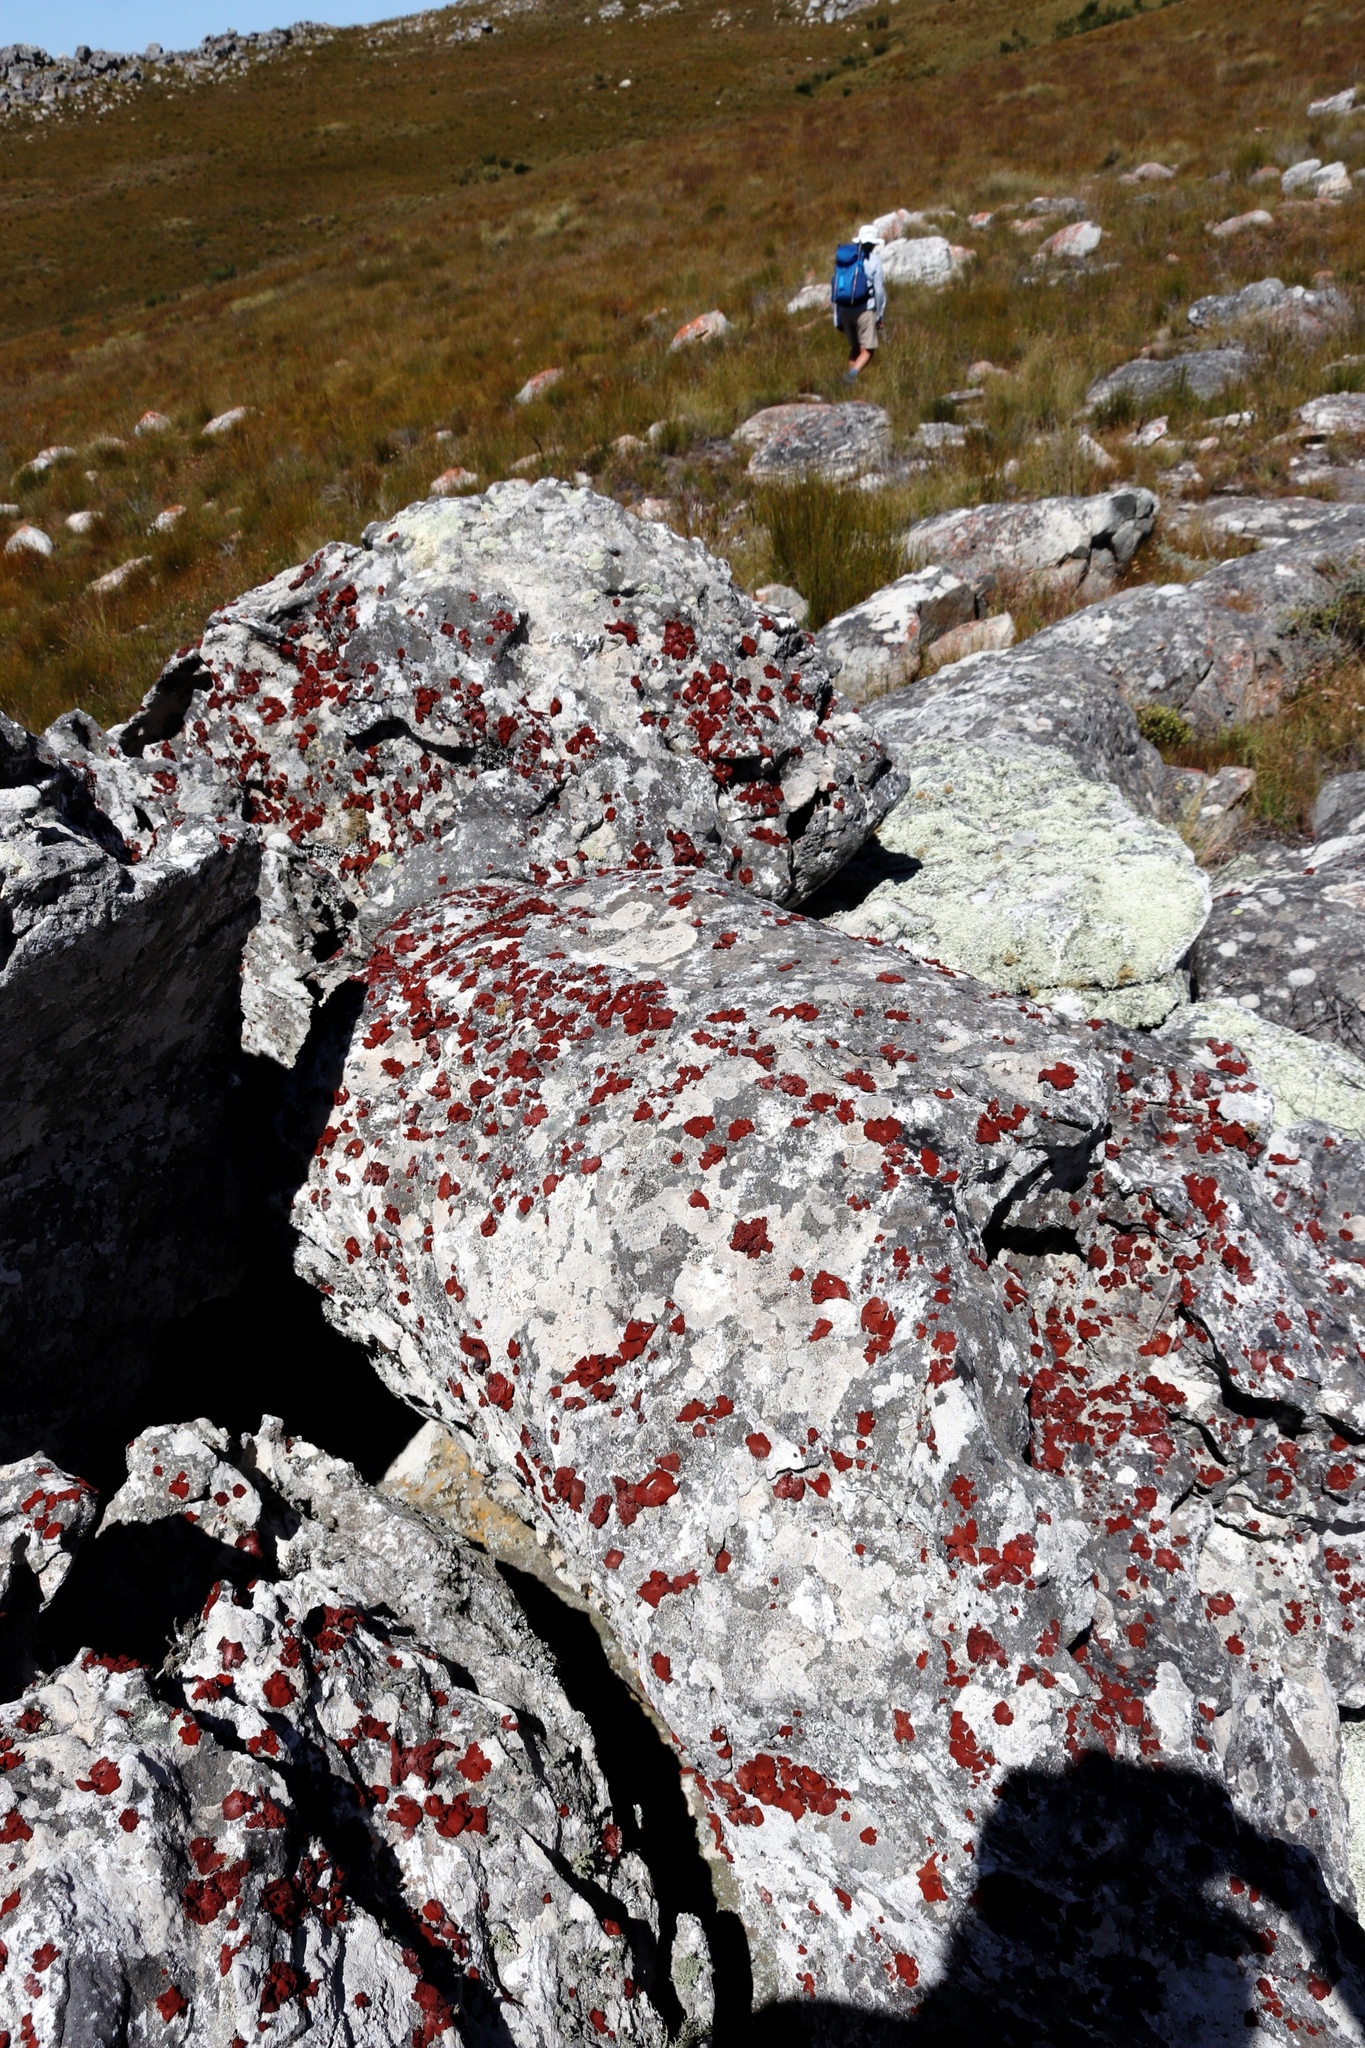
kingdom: Fungi
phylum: Ascomycota
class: Lecanoromycetes
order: Umbilicariales
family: Umbilicariaceae
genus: Lasallia
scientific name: Lasallia rubiginosa
